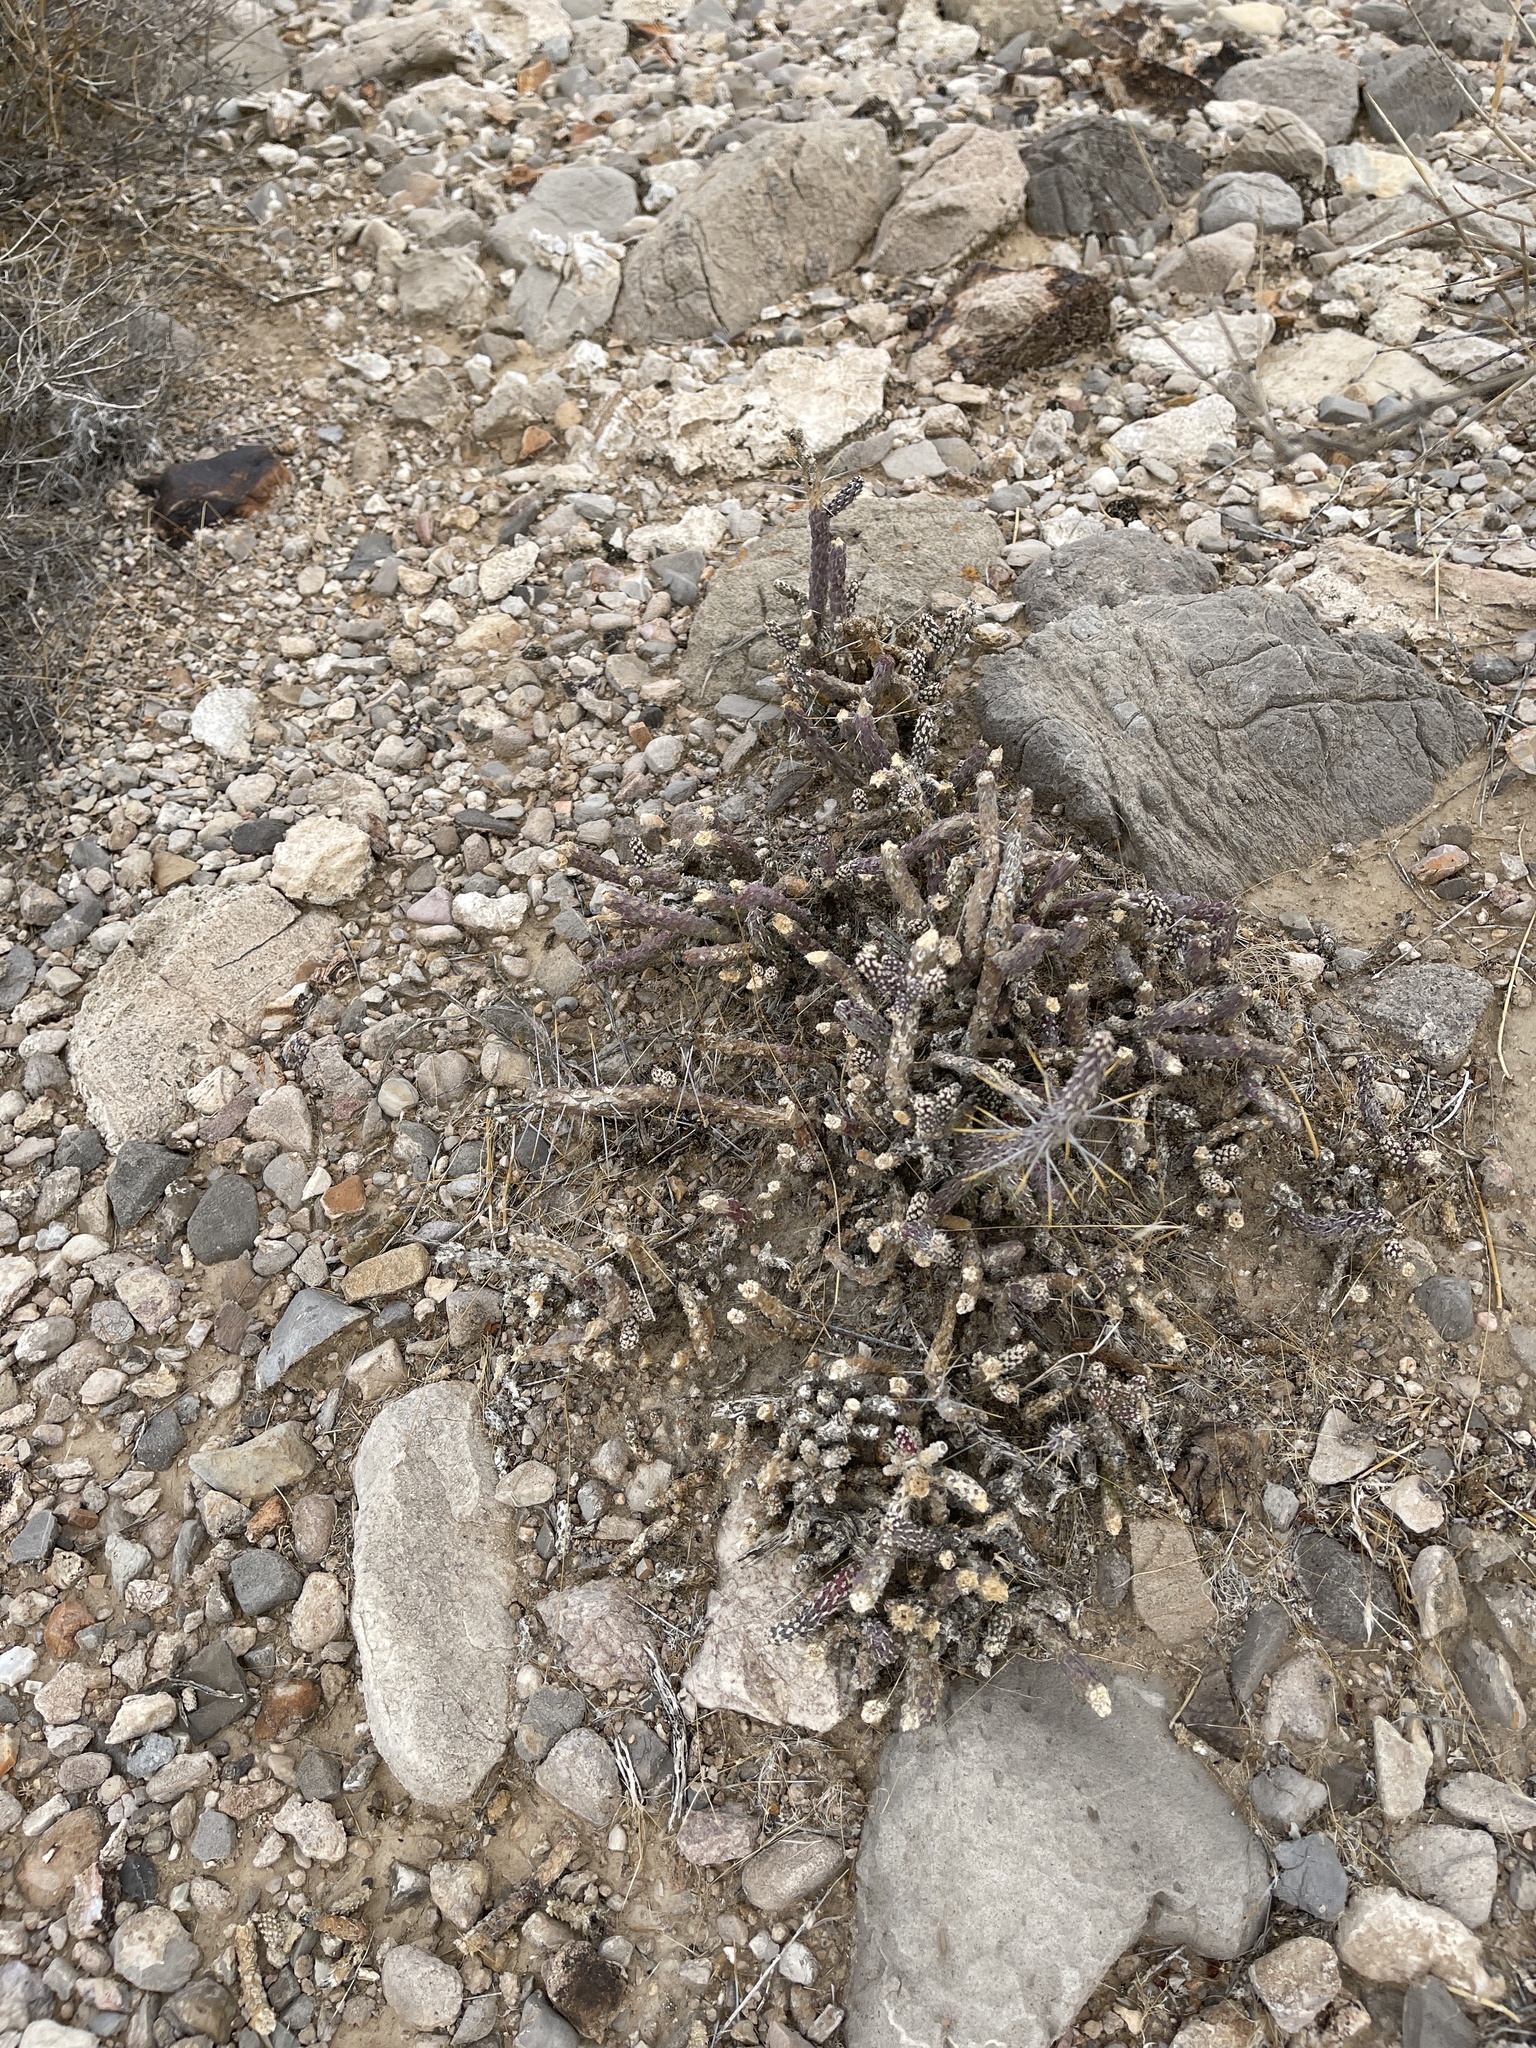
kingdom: Plantae
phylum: Tracheophyta
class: Magnoliopsida
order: Caryophyllales
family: Cactaceae
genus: Cylindropuntia
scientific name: Cylindropuntia ramosissima
